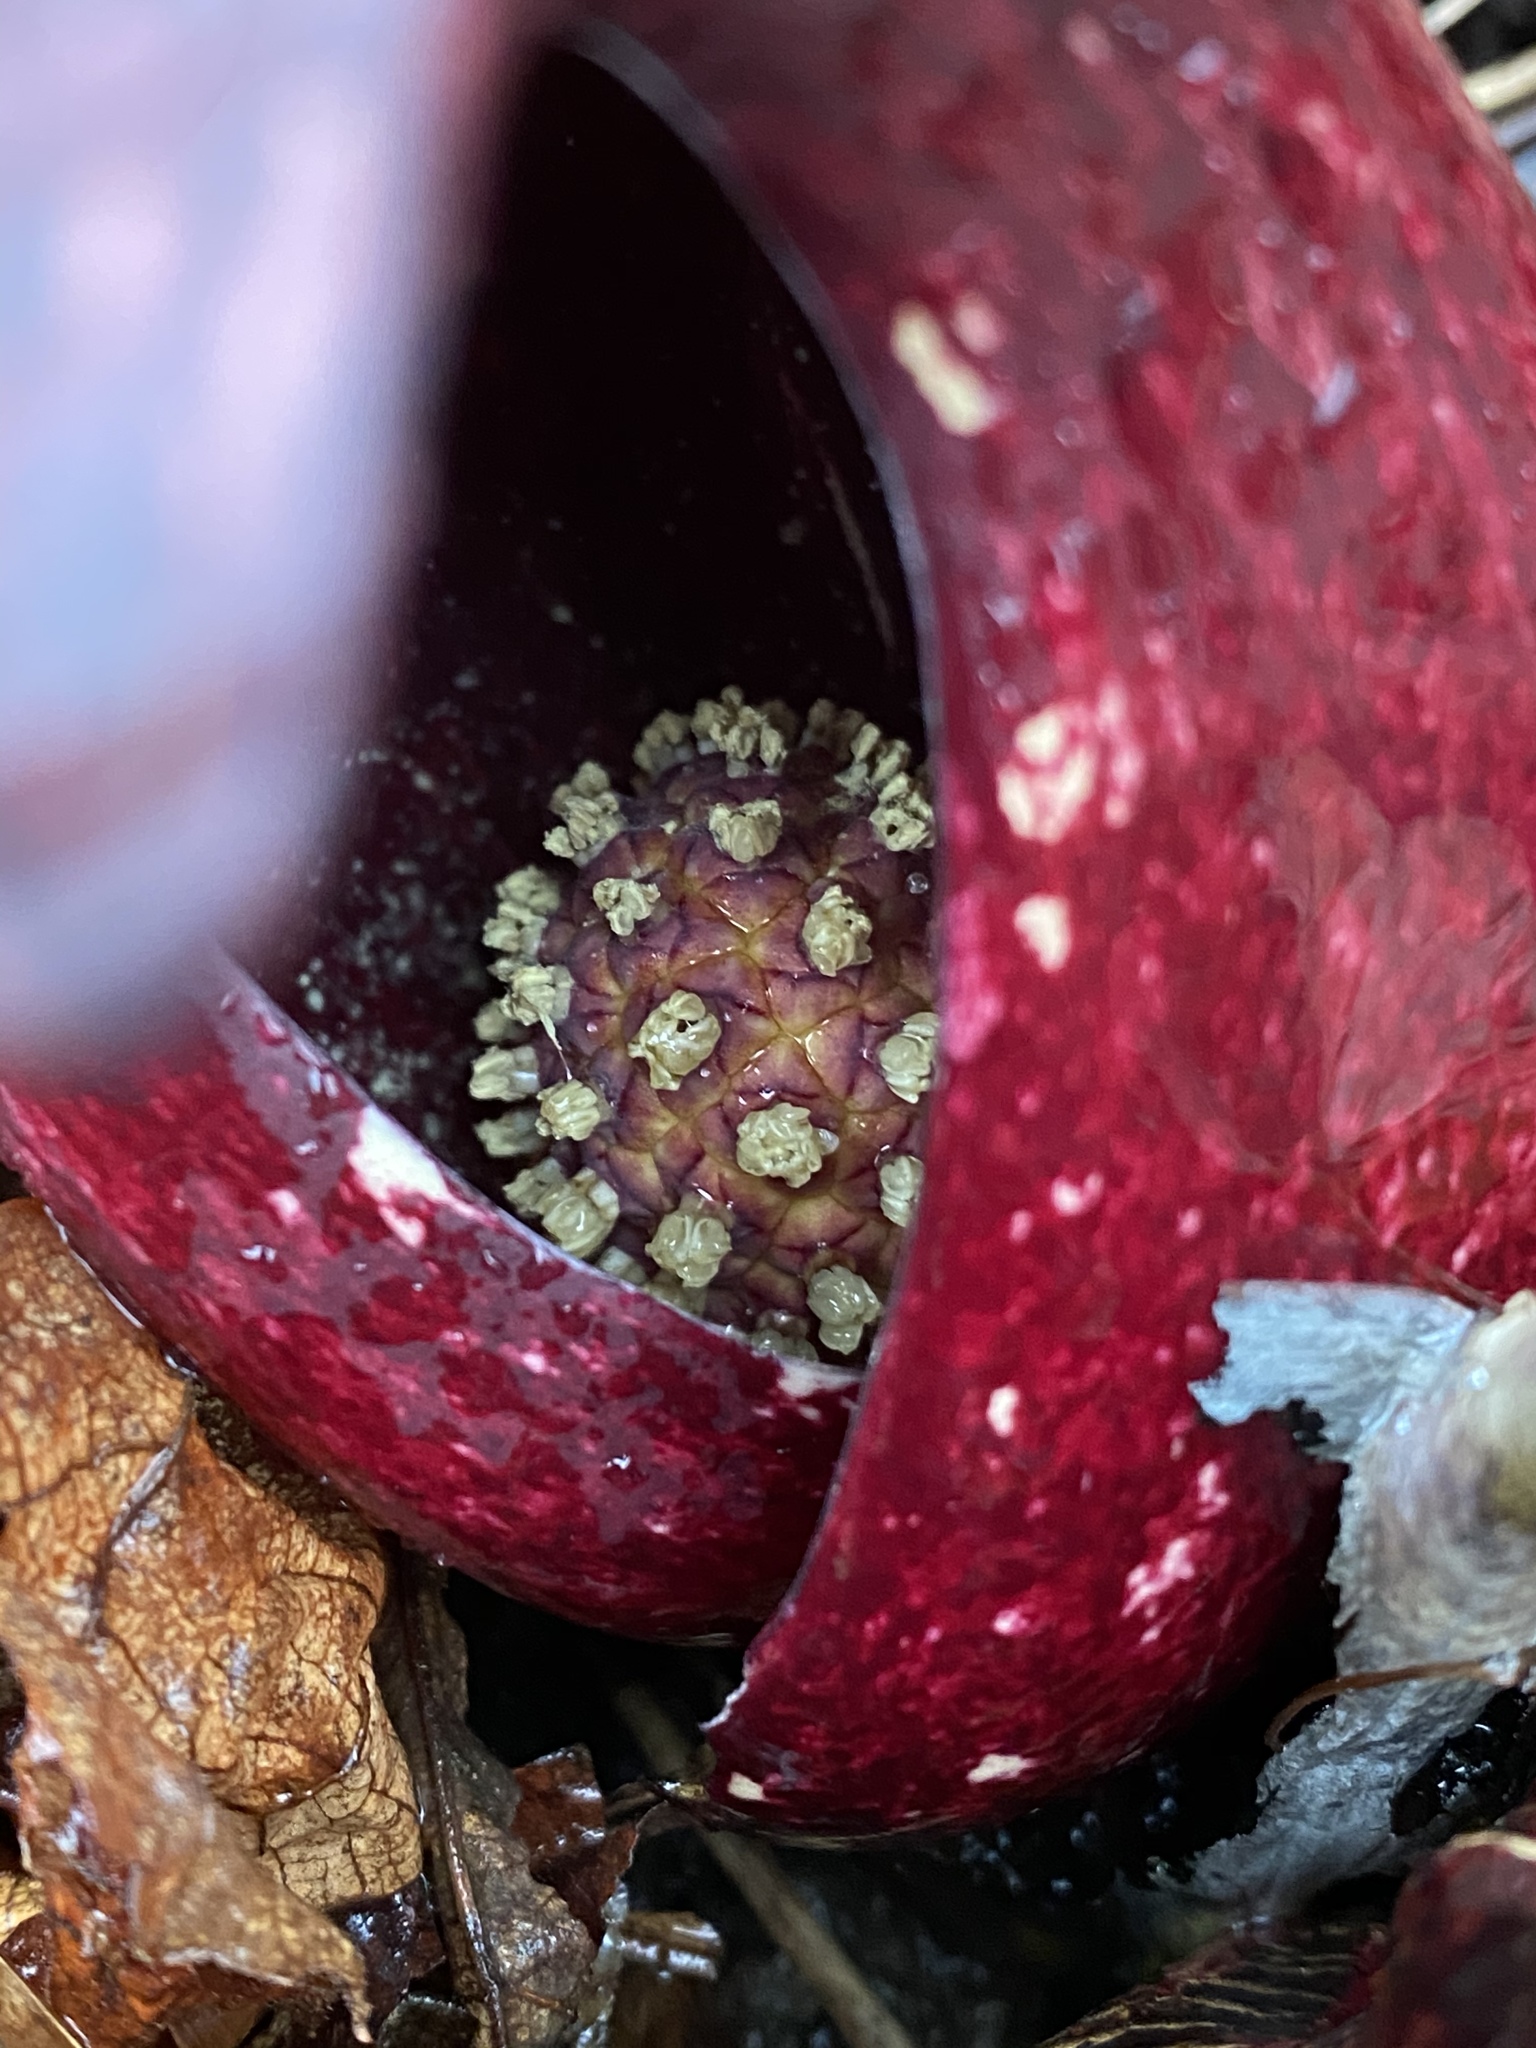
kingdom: Plantae
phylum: Tracheophyta
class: Liliopsida
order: Alismatales
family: Araceae
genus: Symplocarpus
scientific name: Symplocarpus foetidus
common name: Eastern skunk cabbage
